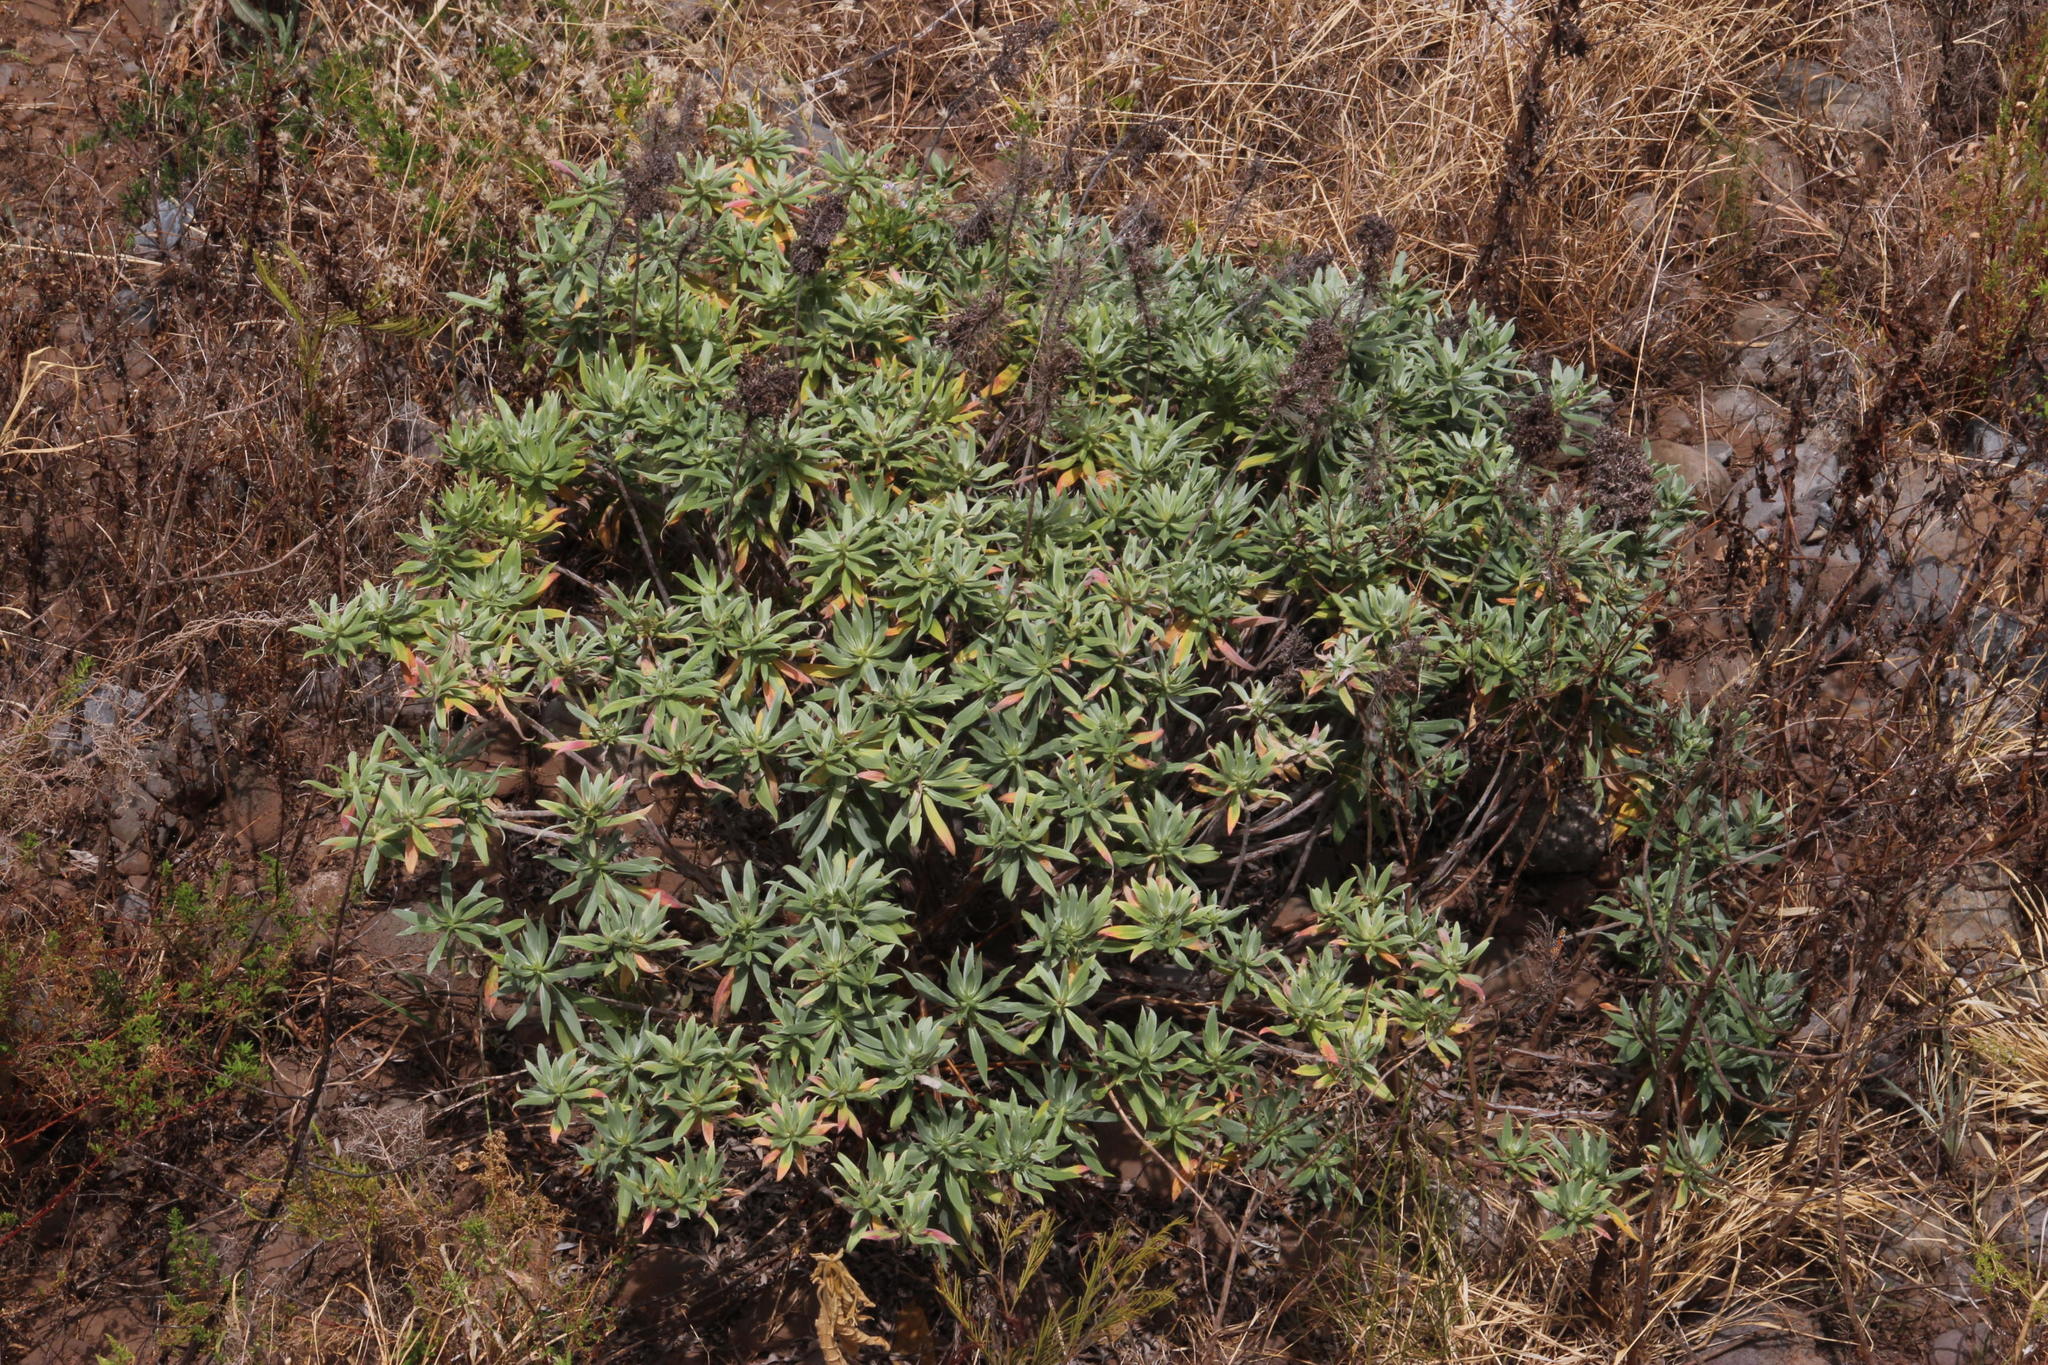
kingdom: Plantae
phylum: Tracheophyta
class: Magnoliopsida
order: Boraginales
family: Boraginaceae
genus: Echium
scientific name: Echium nervosum
